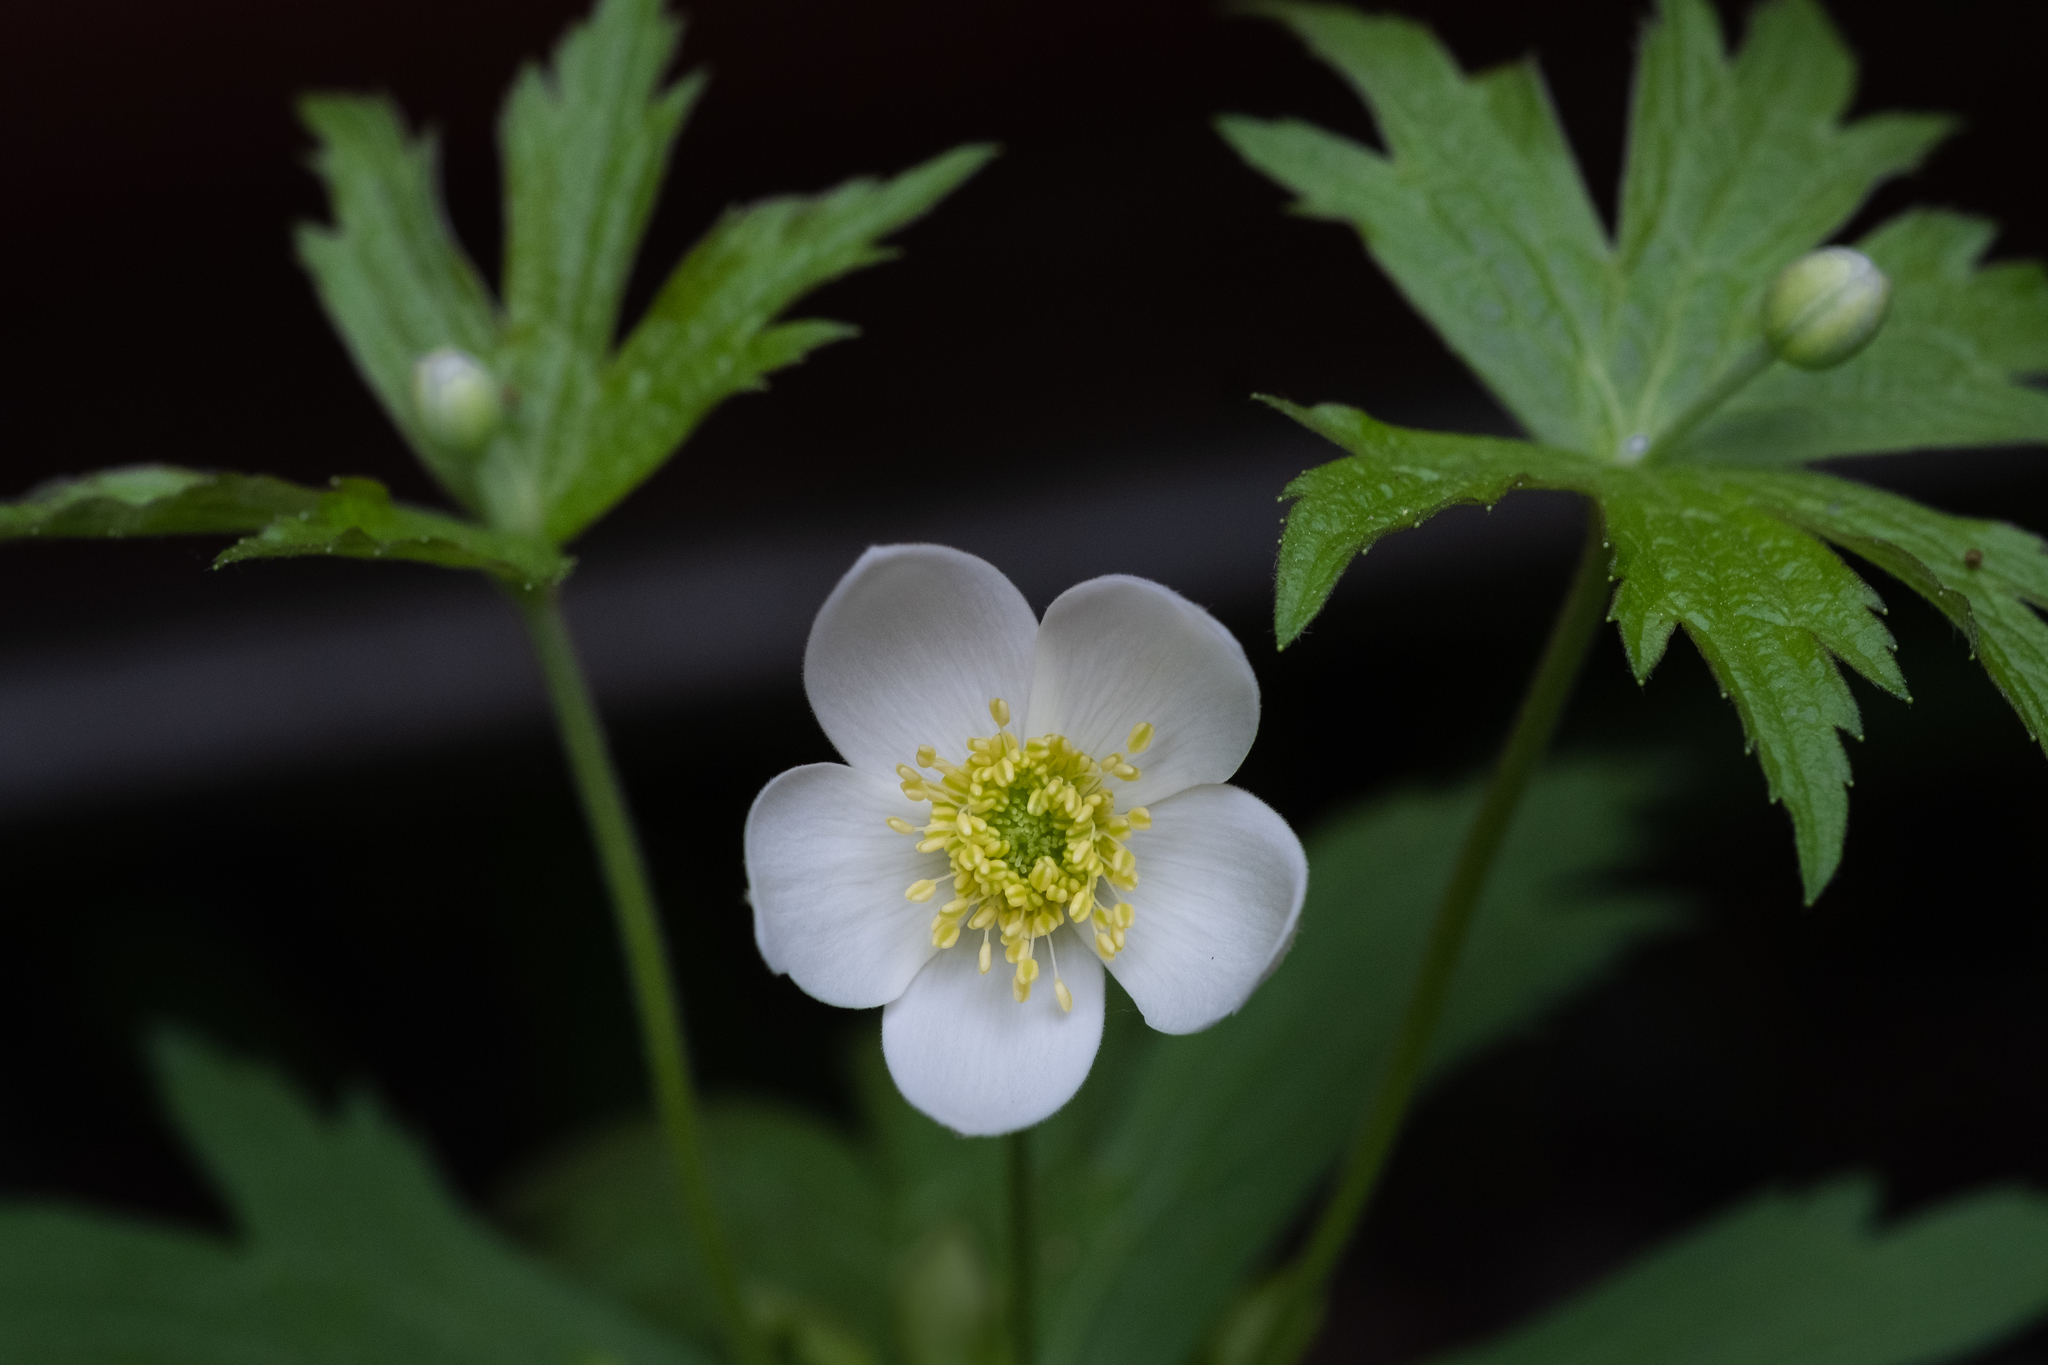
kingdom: Plantae
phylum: Tracheophyta
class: Magnoliopsida
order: Ranunculales
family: Ranunculaceae
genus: Anemonastrum
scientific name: Anemonastrum canadense
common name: Canada anemone
